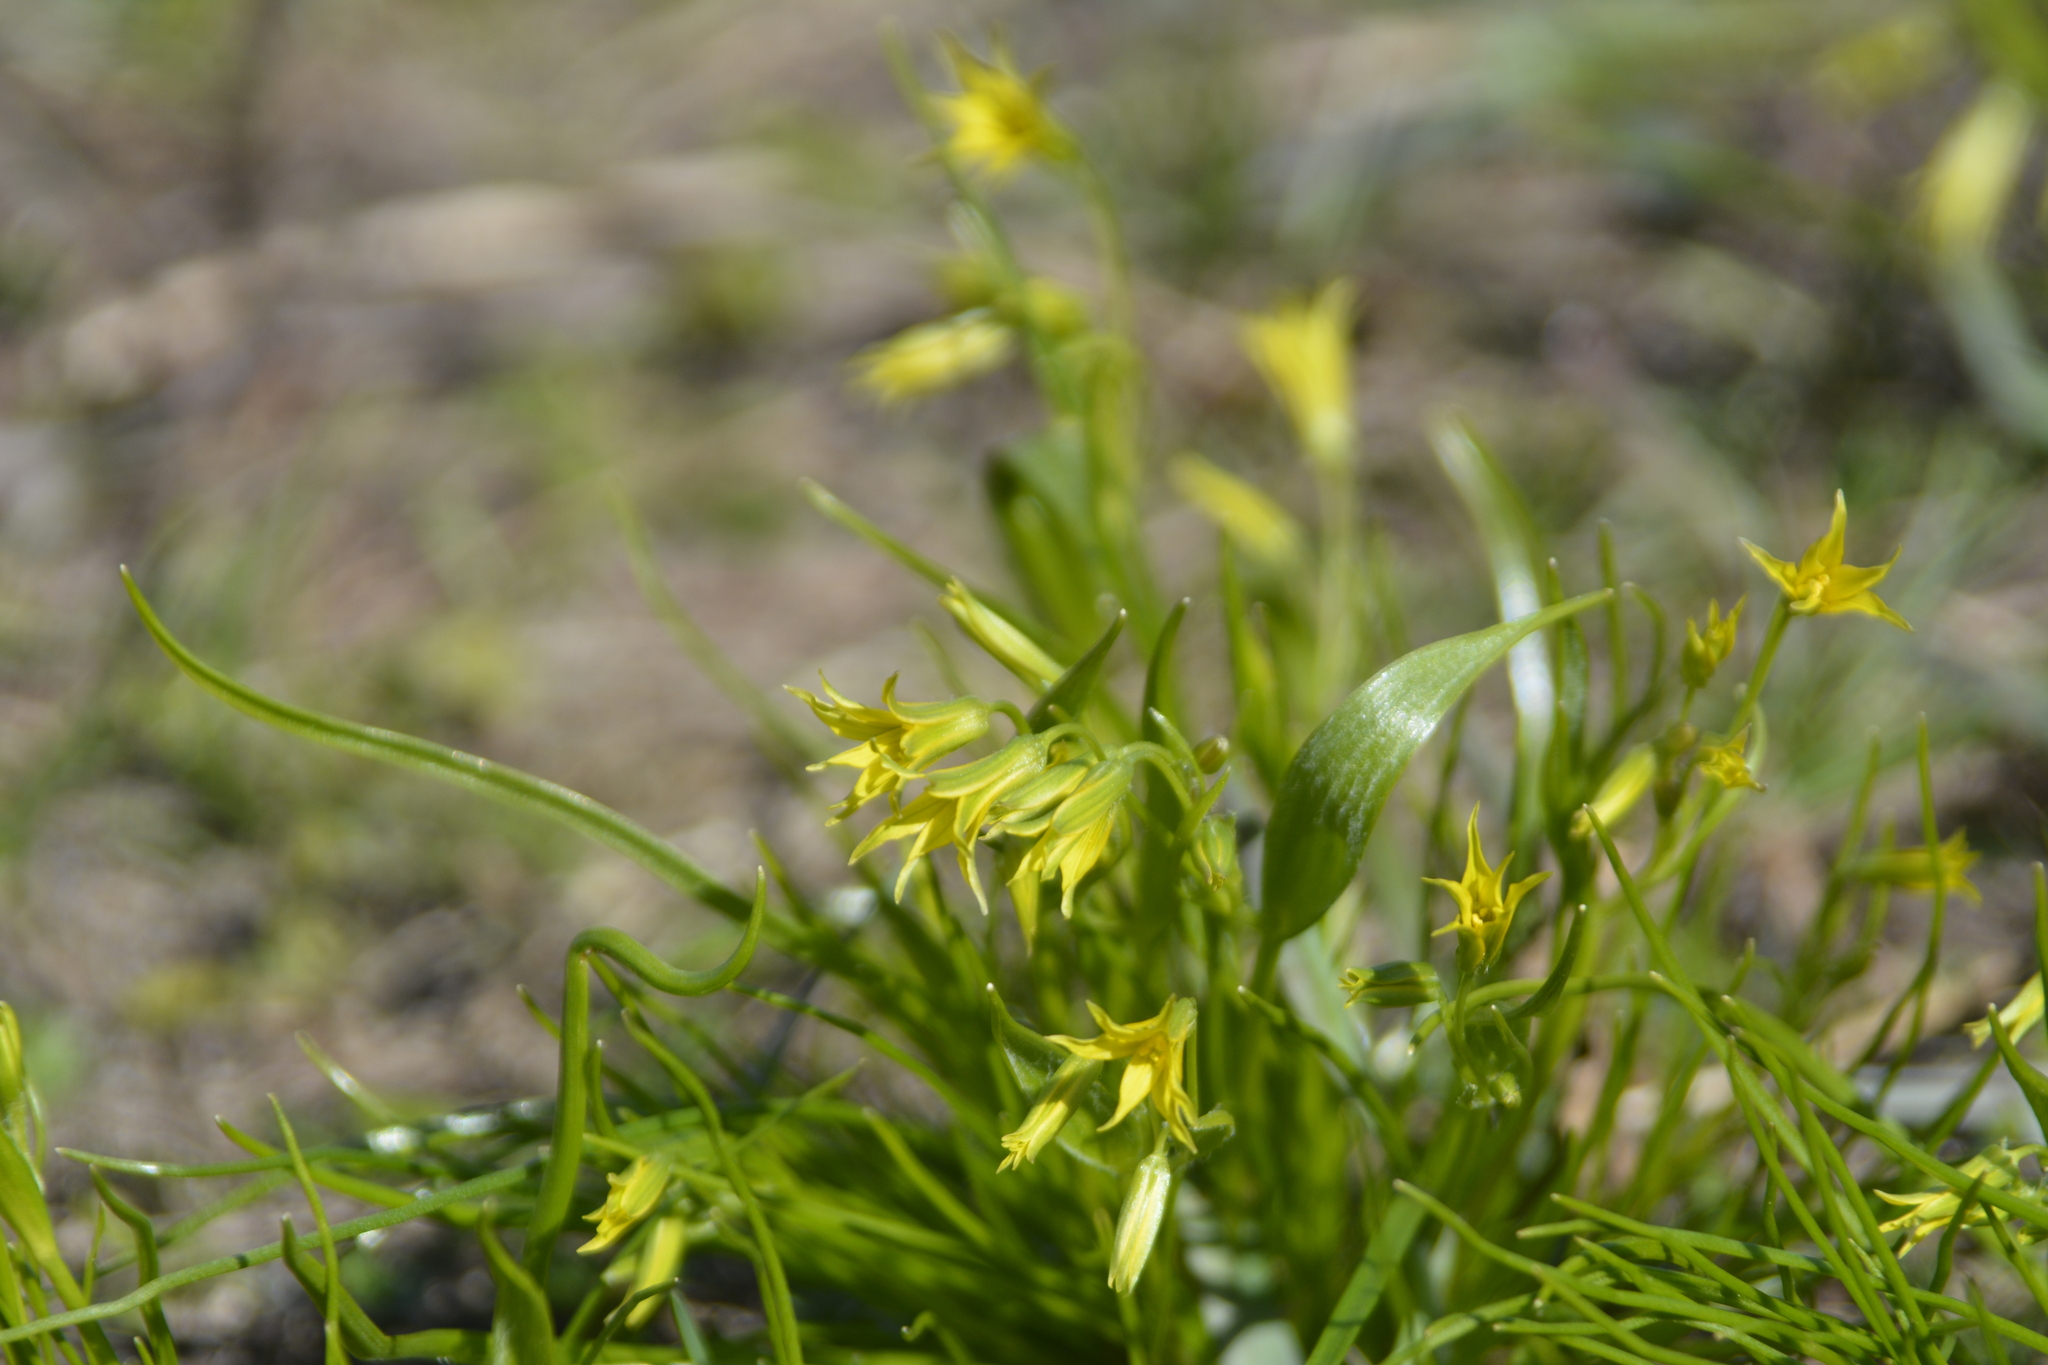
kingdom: Plantae
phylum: Tracheophyta
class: Liliopsida
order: Liliales
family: Liliaceae
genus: Gagea
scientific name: Gagea minima
